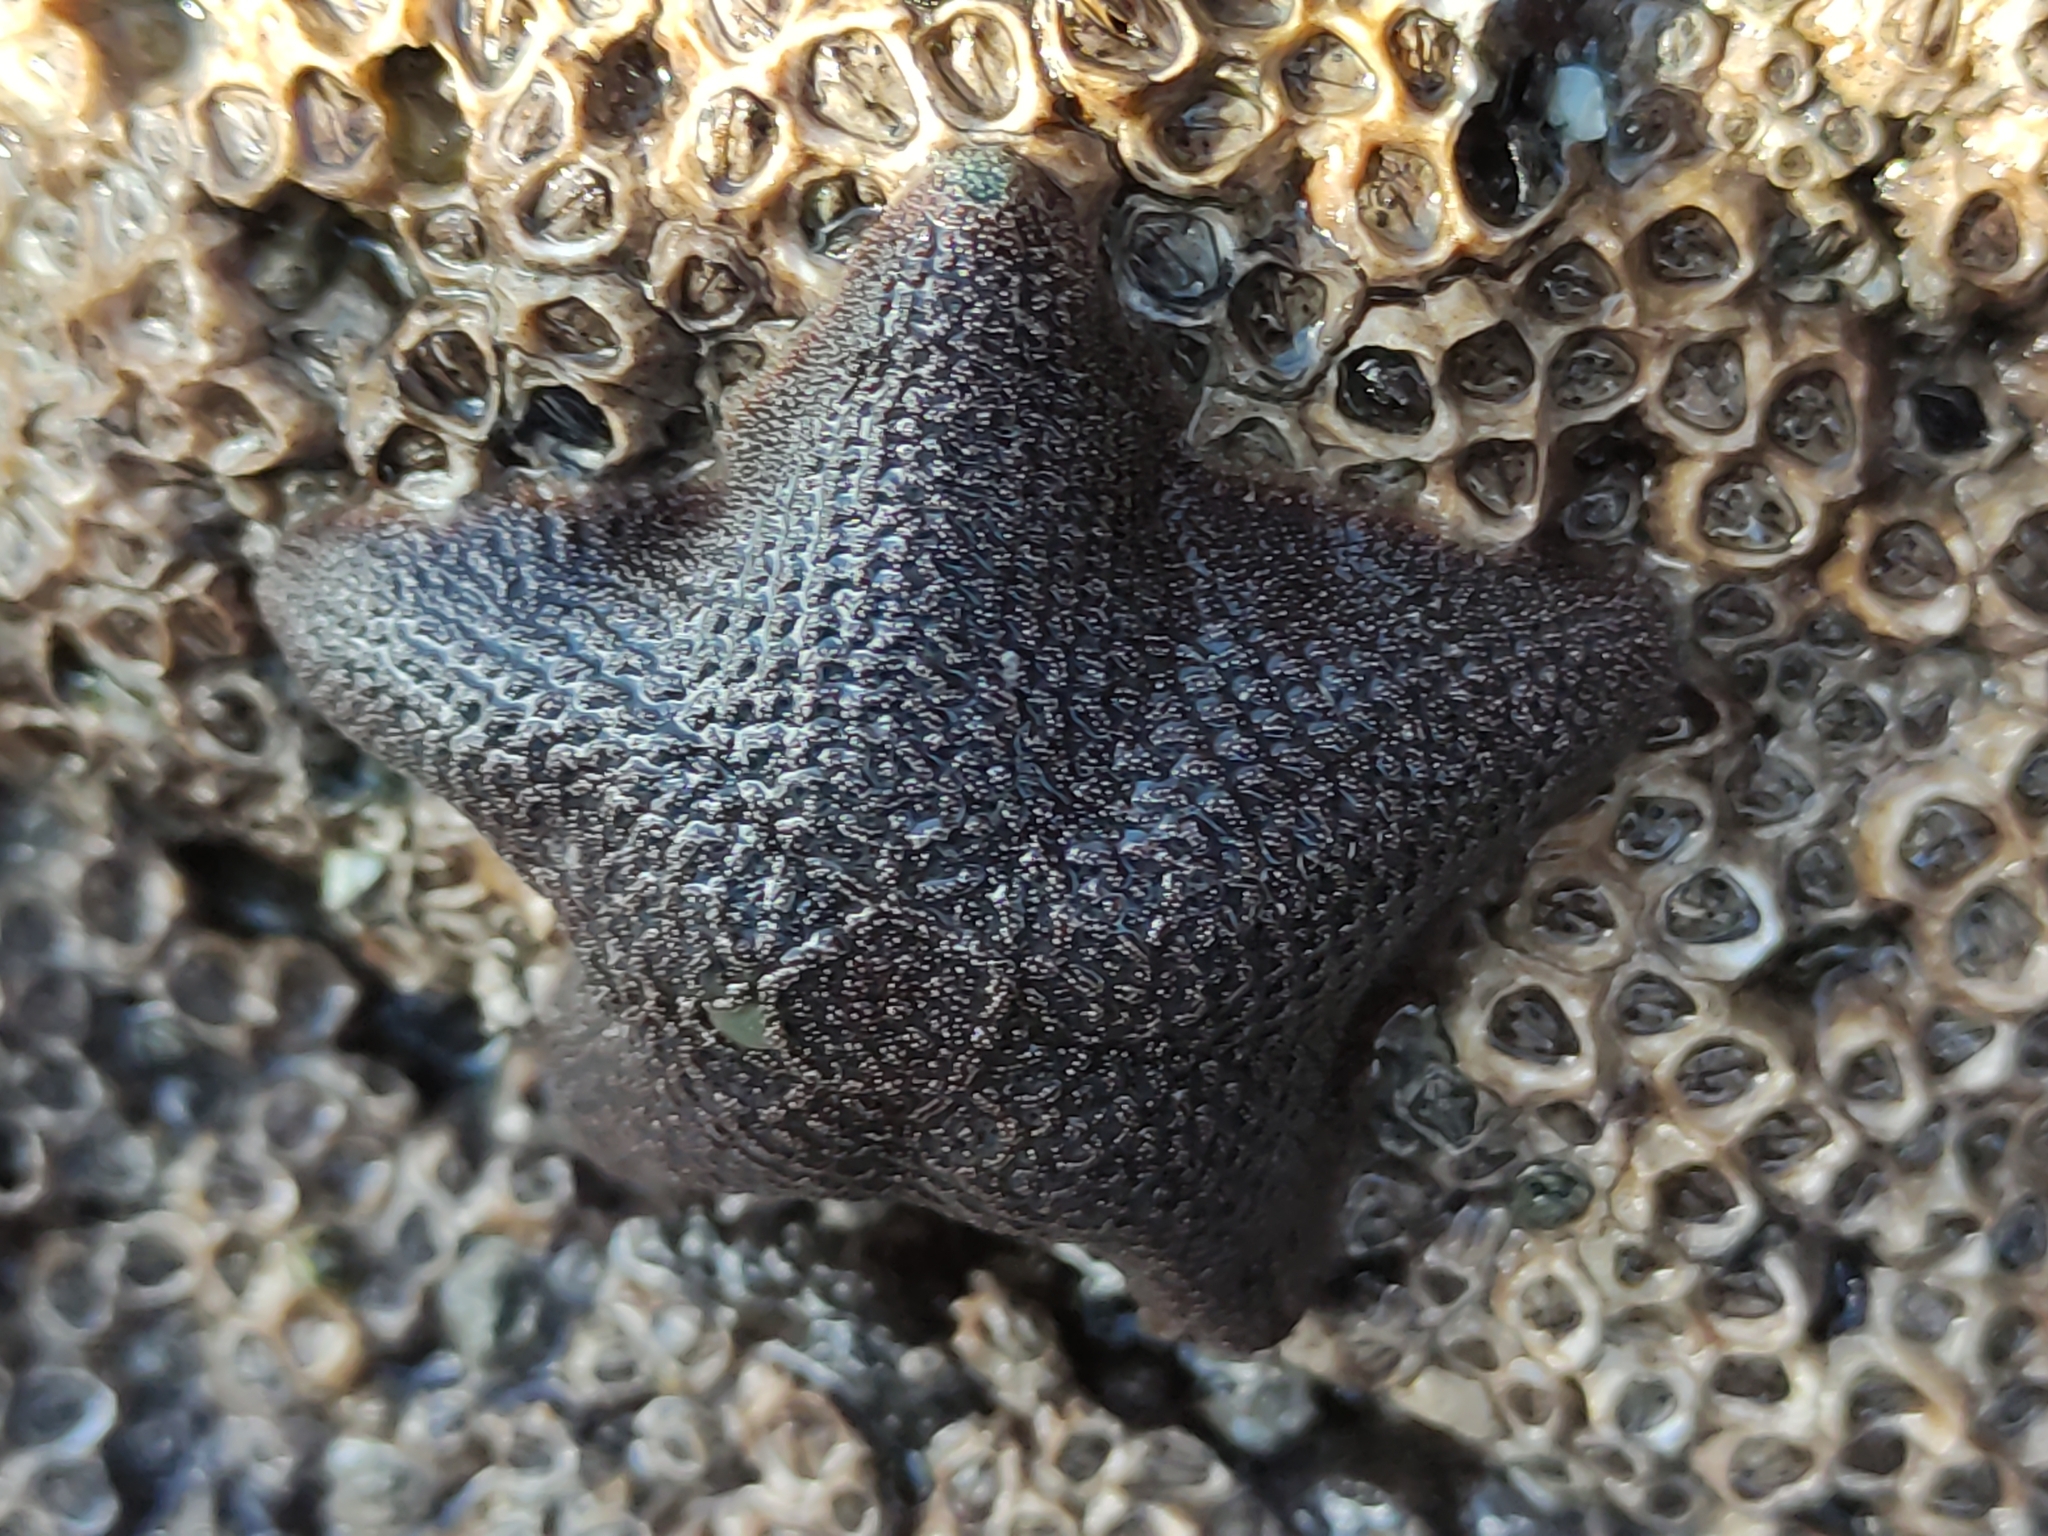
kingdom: Animalia
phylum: Echinodermata
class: Asteroidea
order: Valvatida
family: Asterinidae
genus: Patiriella
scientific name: Patiriella regularis
